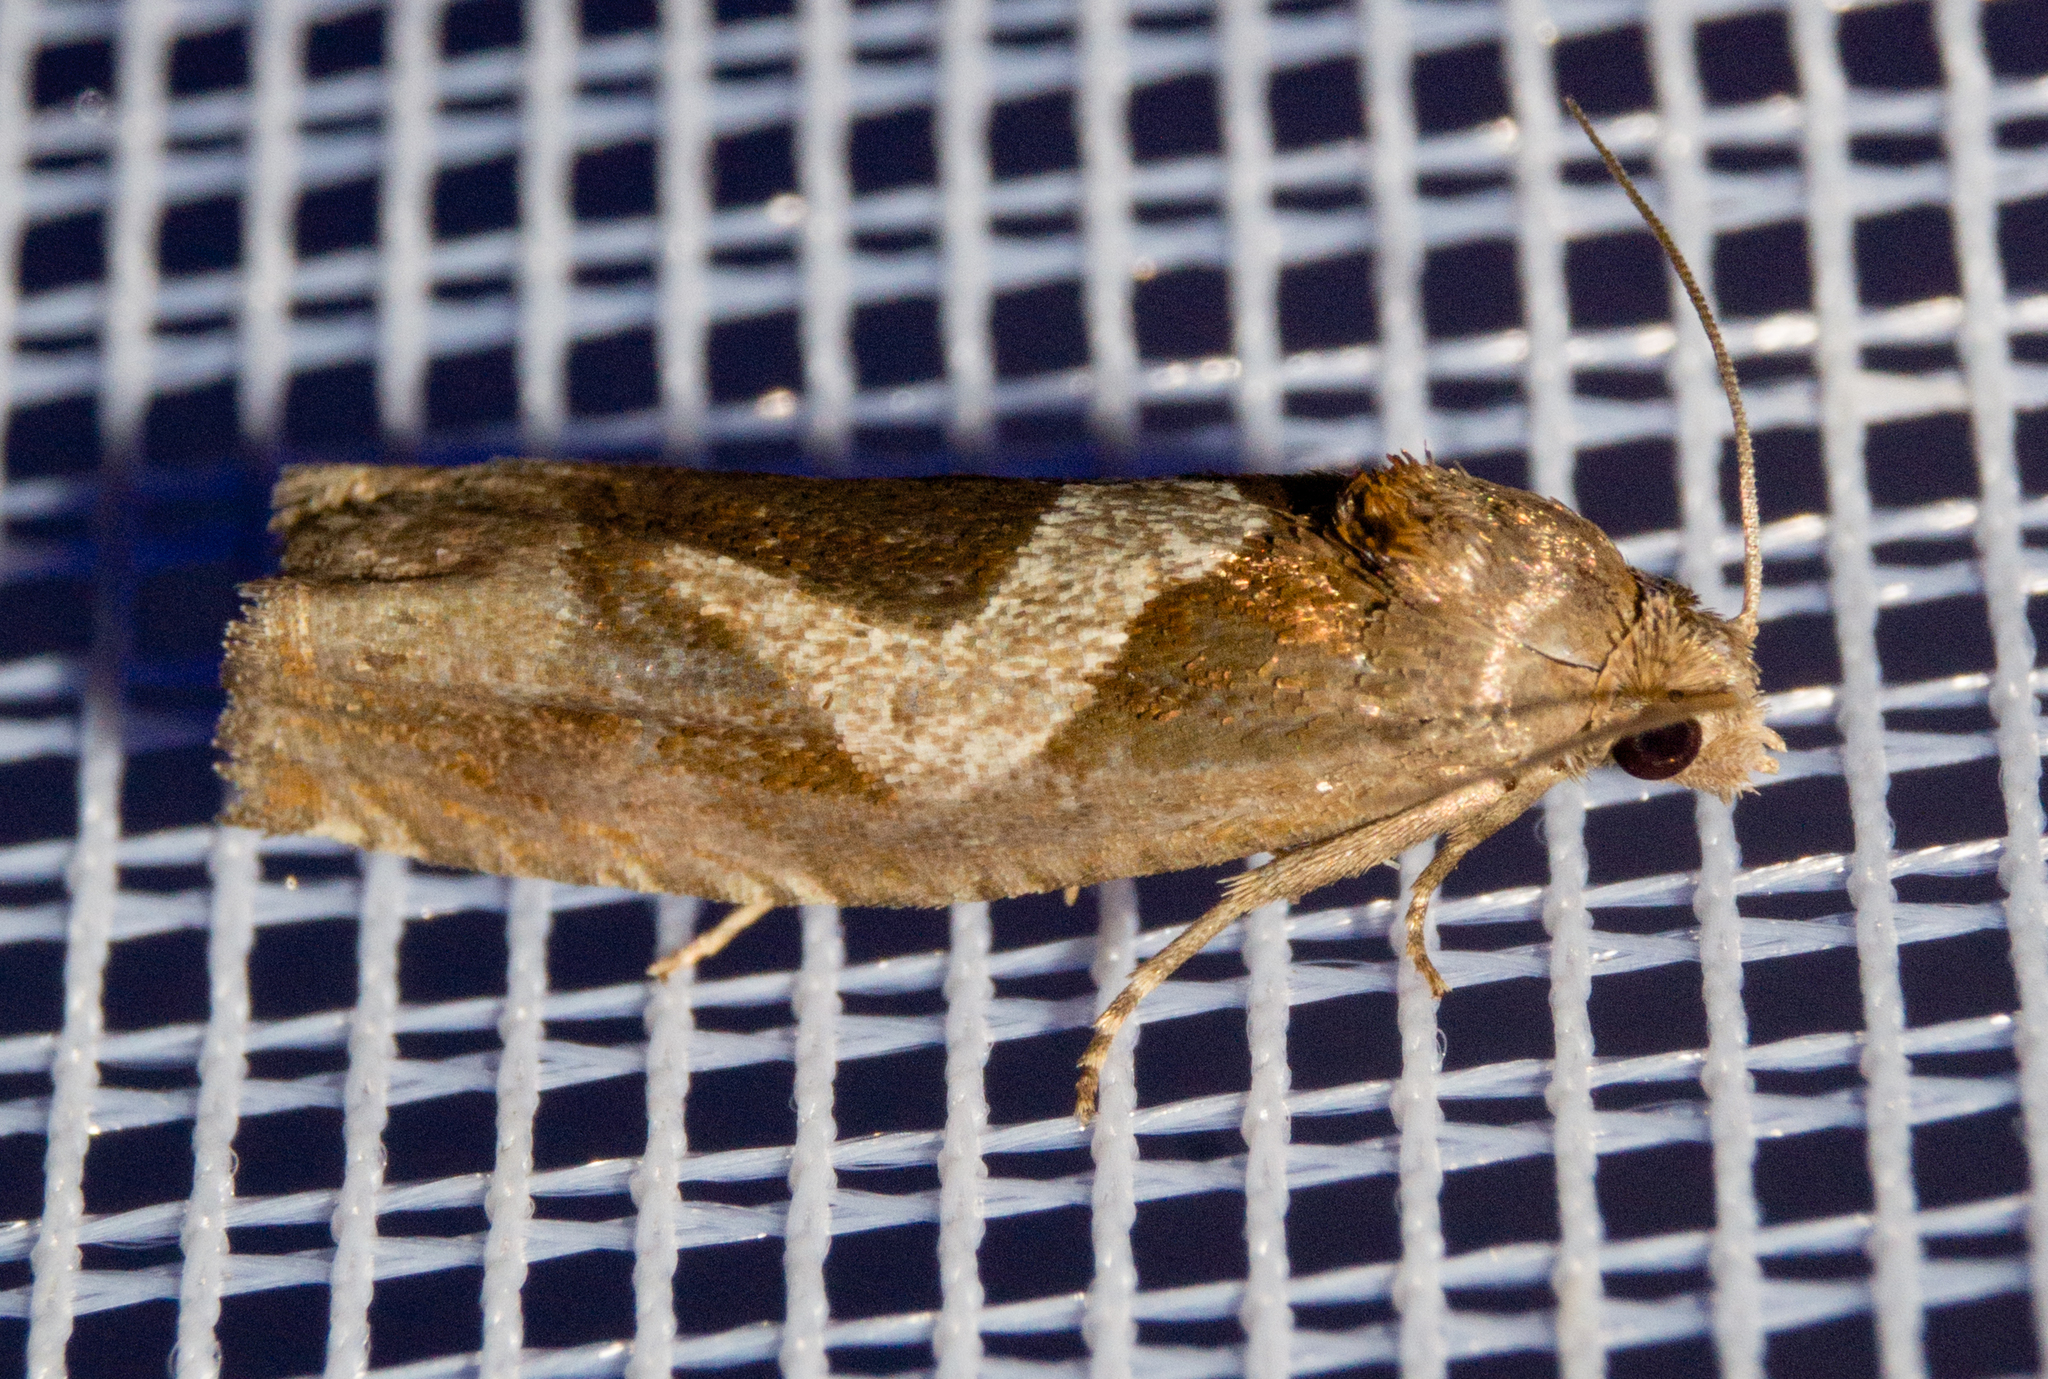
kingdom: Animalia
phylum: Arthropoda
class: Insecta
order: Lepidoptera
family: Tortricidae
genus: Epiblema
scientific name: Epiblema foenella
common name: White-foot bell
